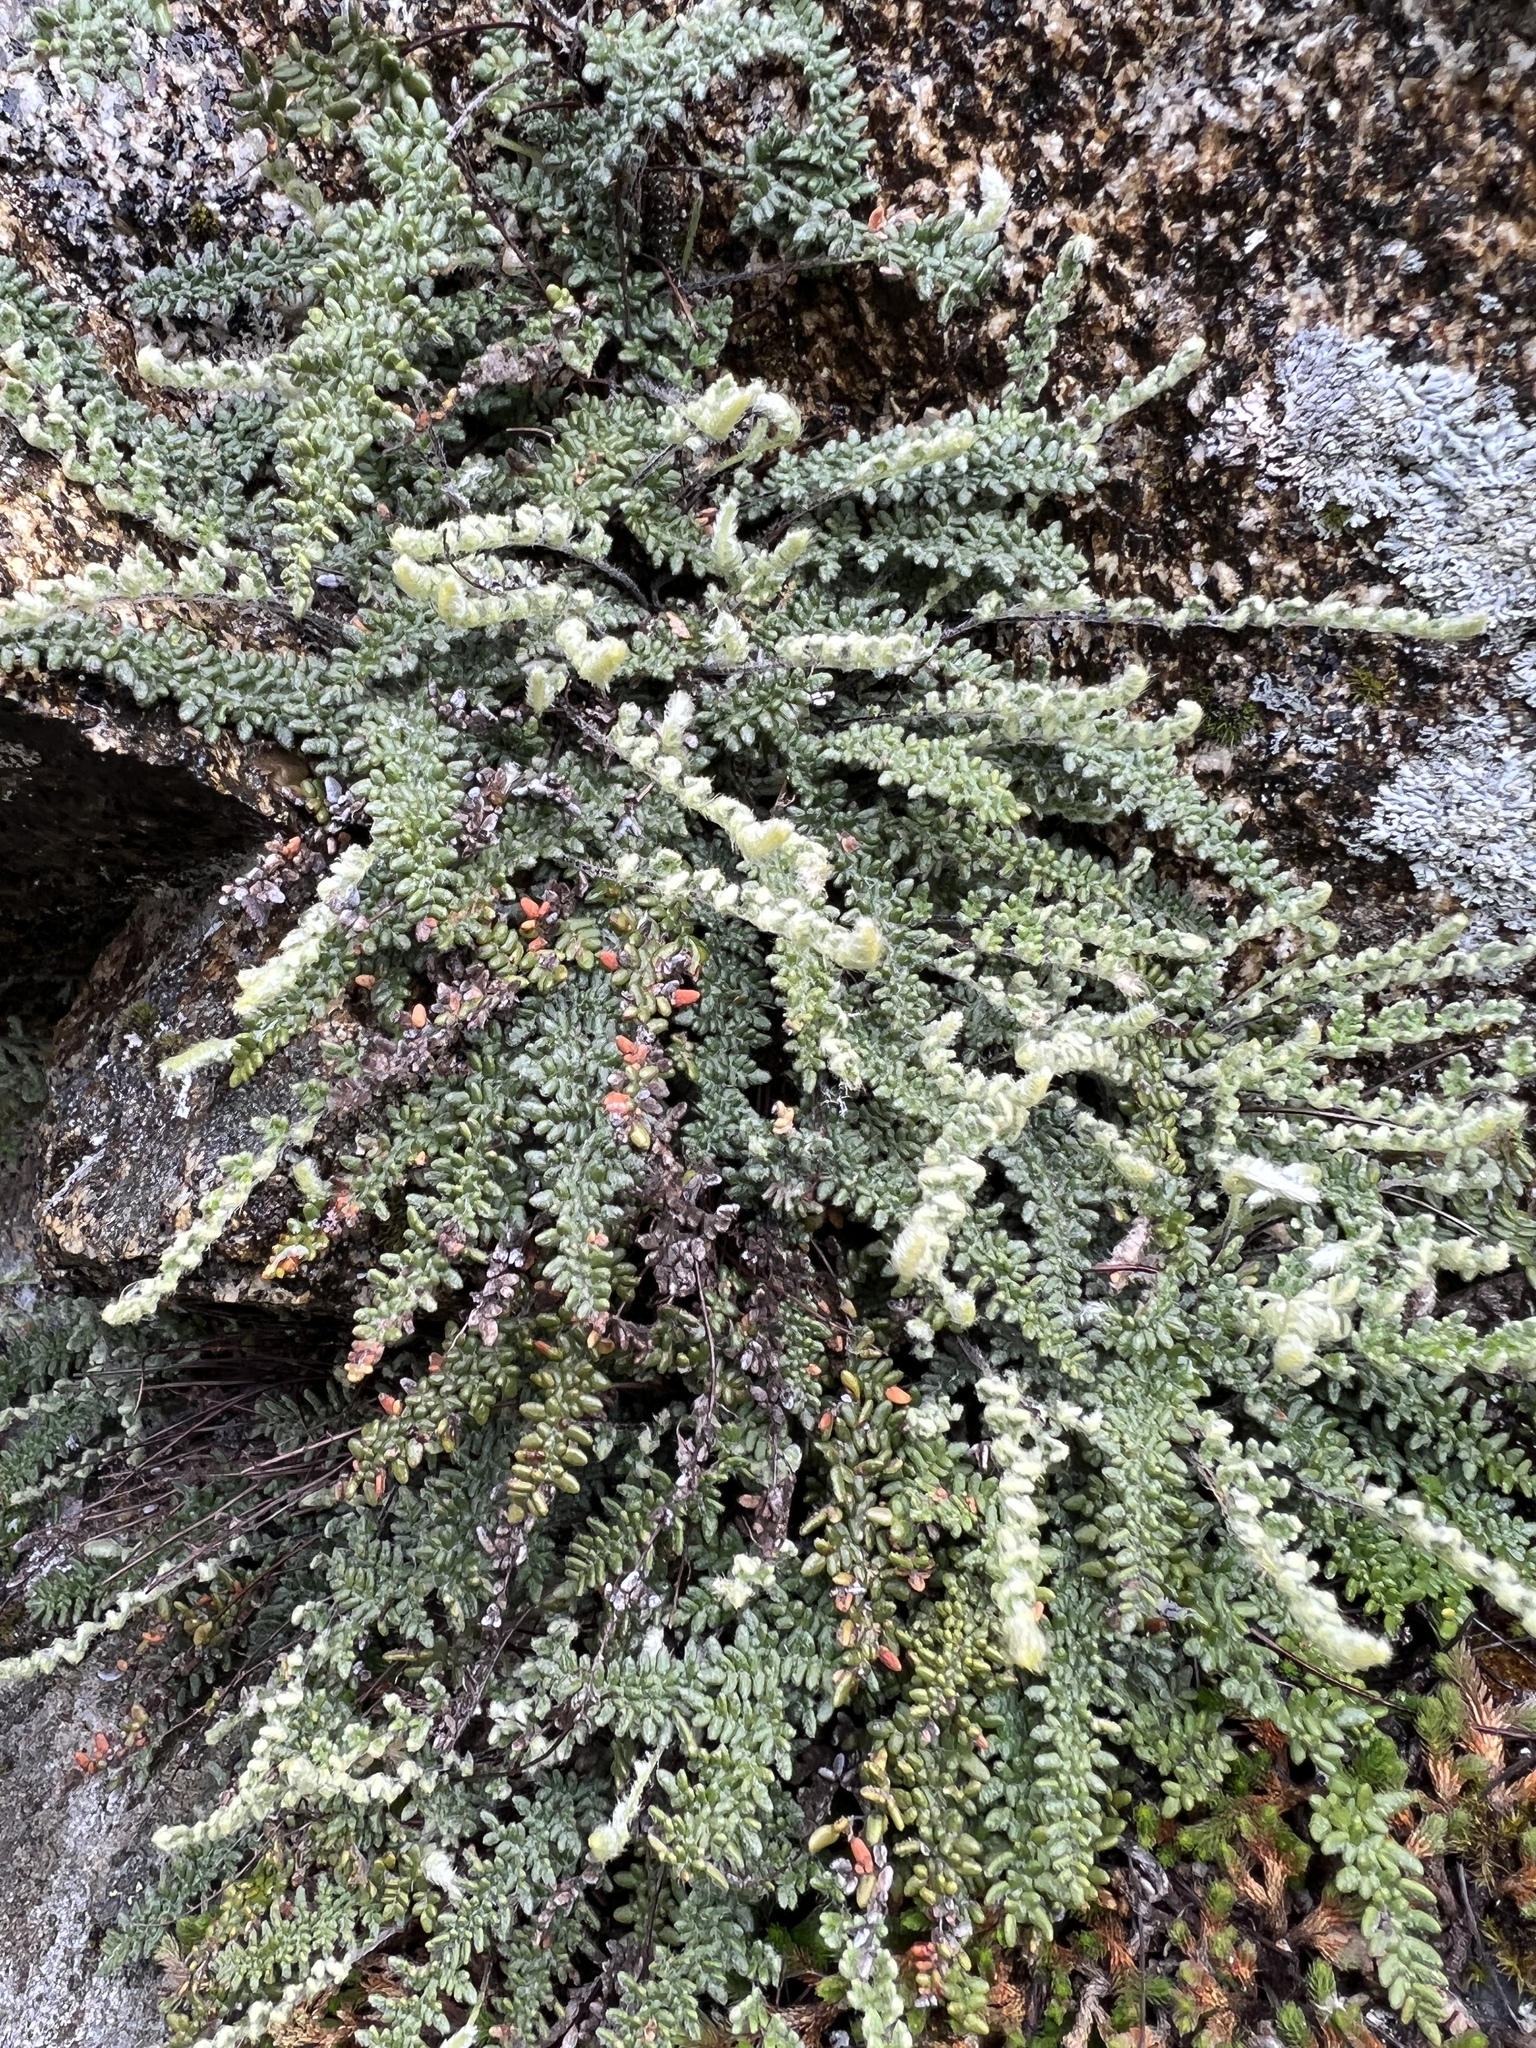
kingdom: Plantae
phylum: Tracheophyta
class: Polypodiopsida
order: Polypodiales
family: Pteridaceae
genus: Myriopteris
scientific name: Myriopteris gracillima
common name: Lace fern
